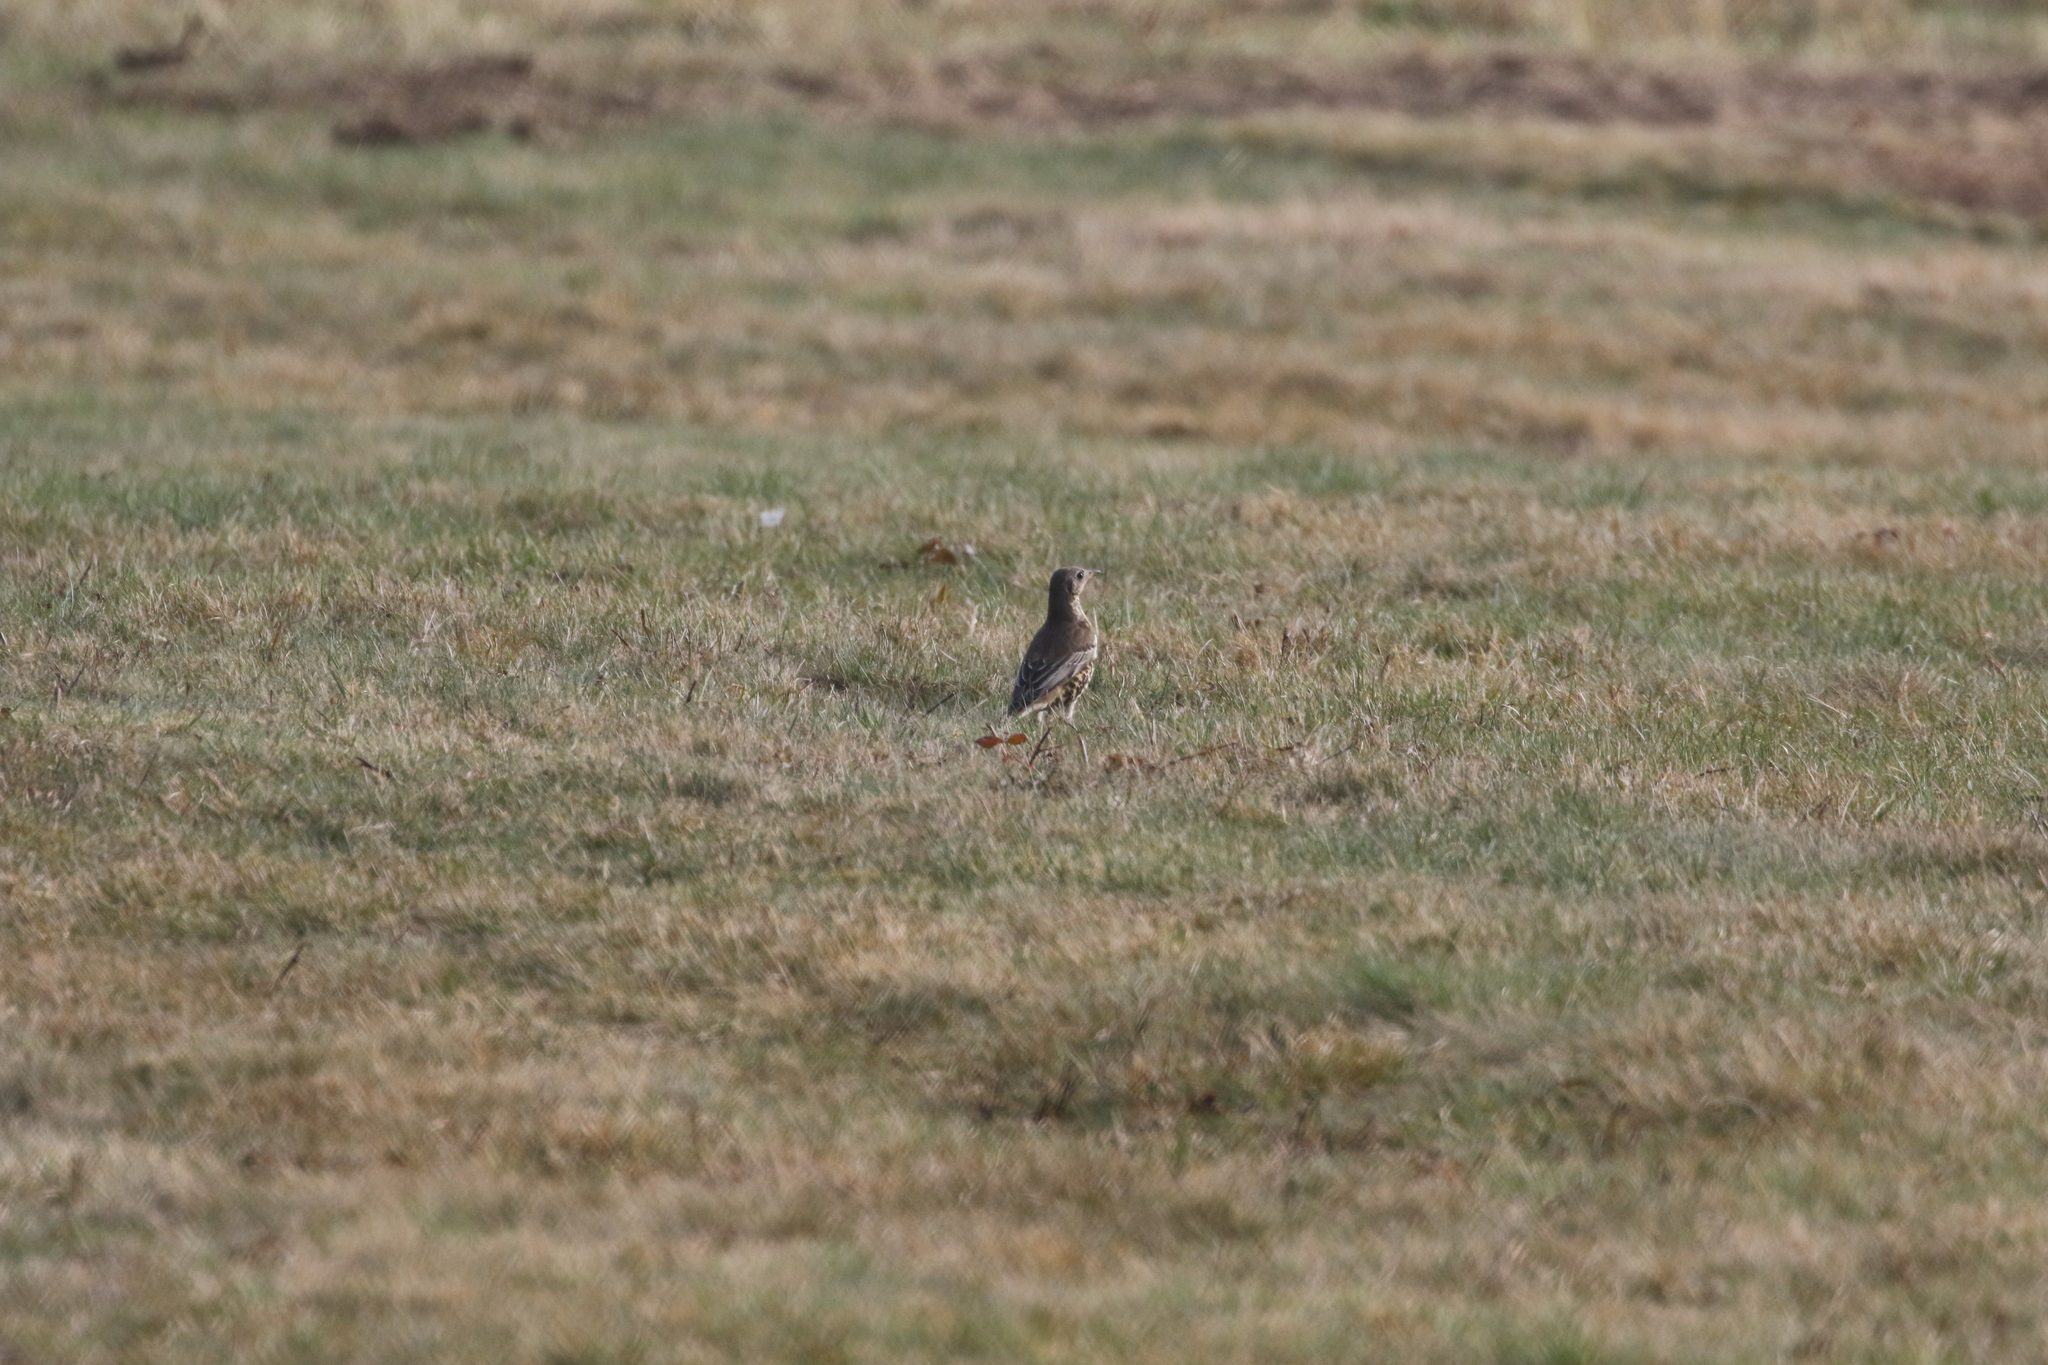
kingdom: Animalia
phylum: Chordata
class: Aves
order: Passeriformes
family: Turdidae
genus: Turdus
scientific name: Turdus viscivorus
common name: Mistle thrush
